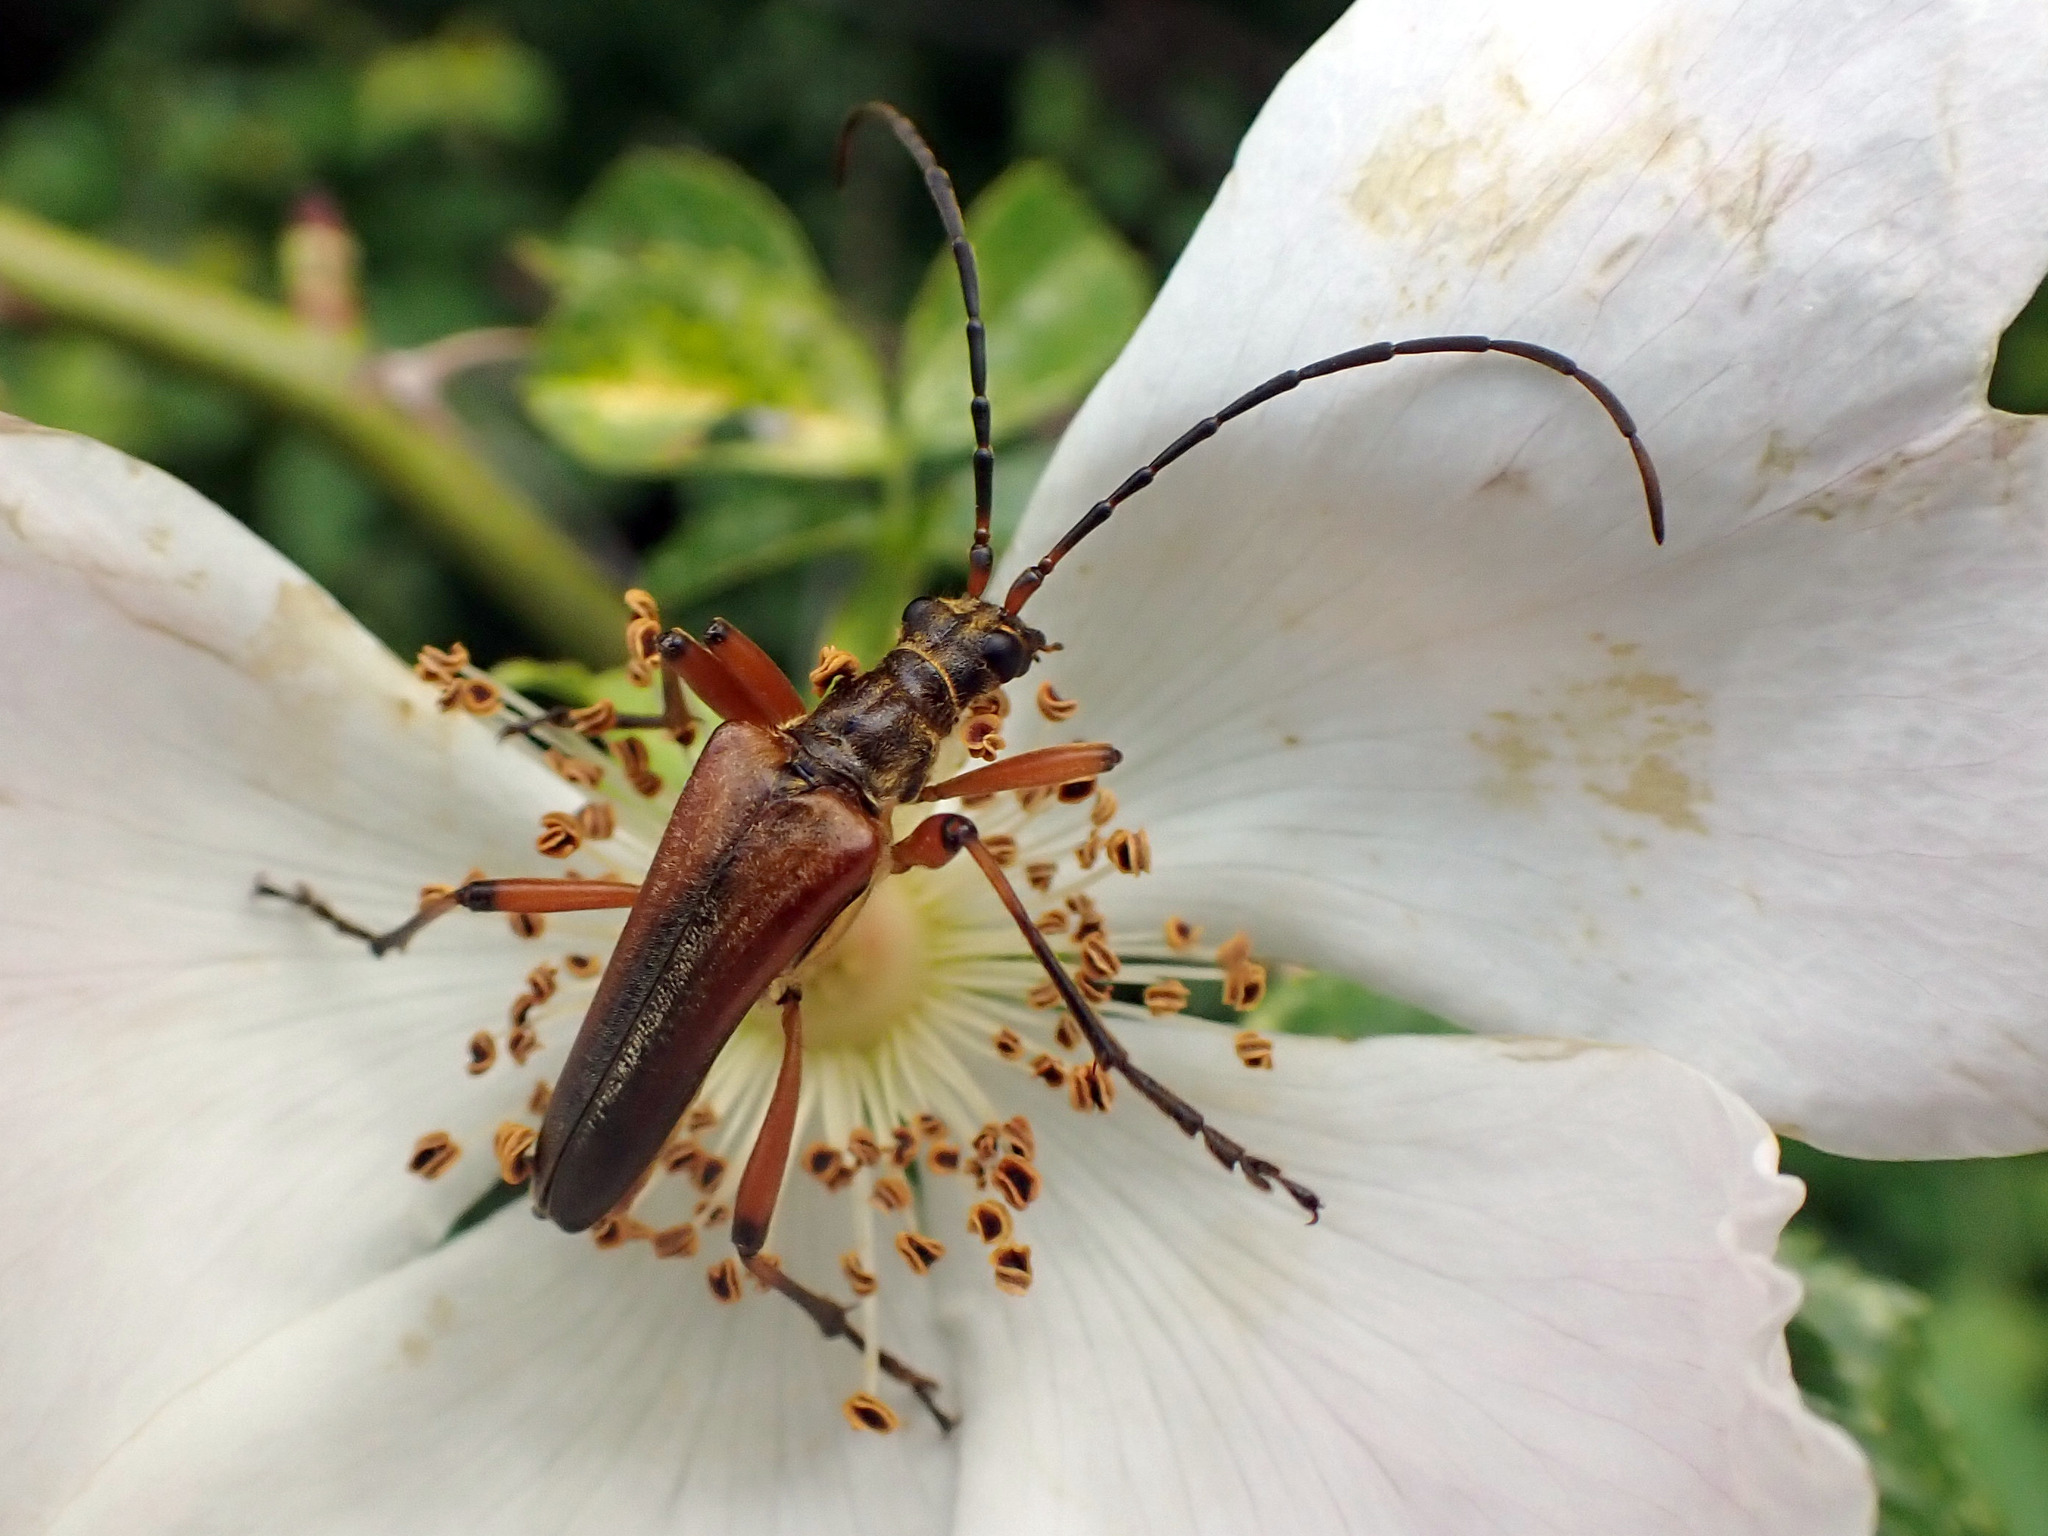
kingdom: Animalia
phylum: Arthropoda
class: Insecta
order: Coleoptera
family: Cerambycidae
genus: Stenocorus
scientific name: Stenocorus meridianus
